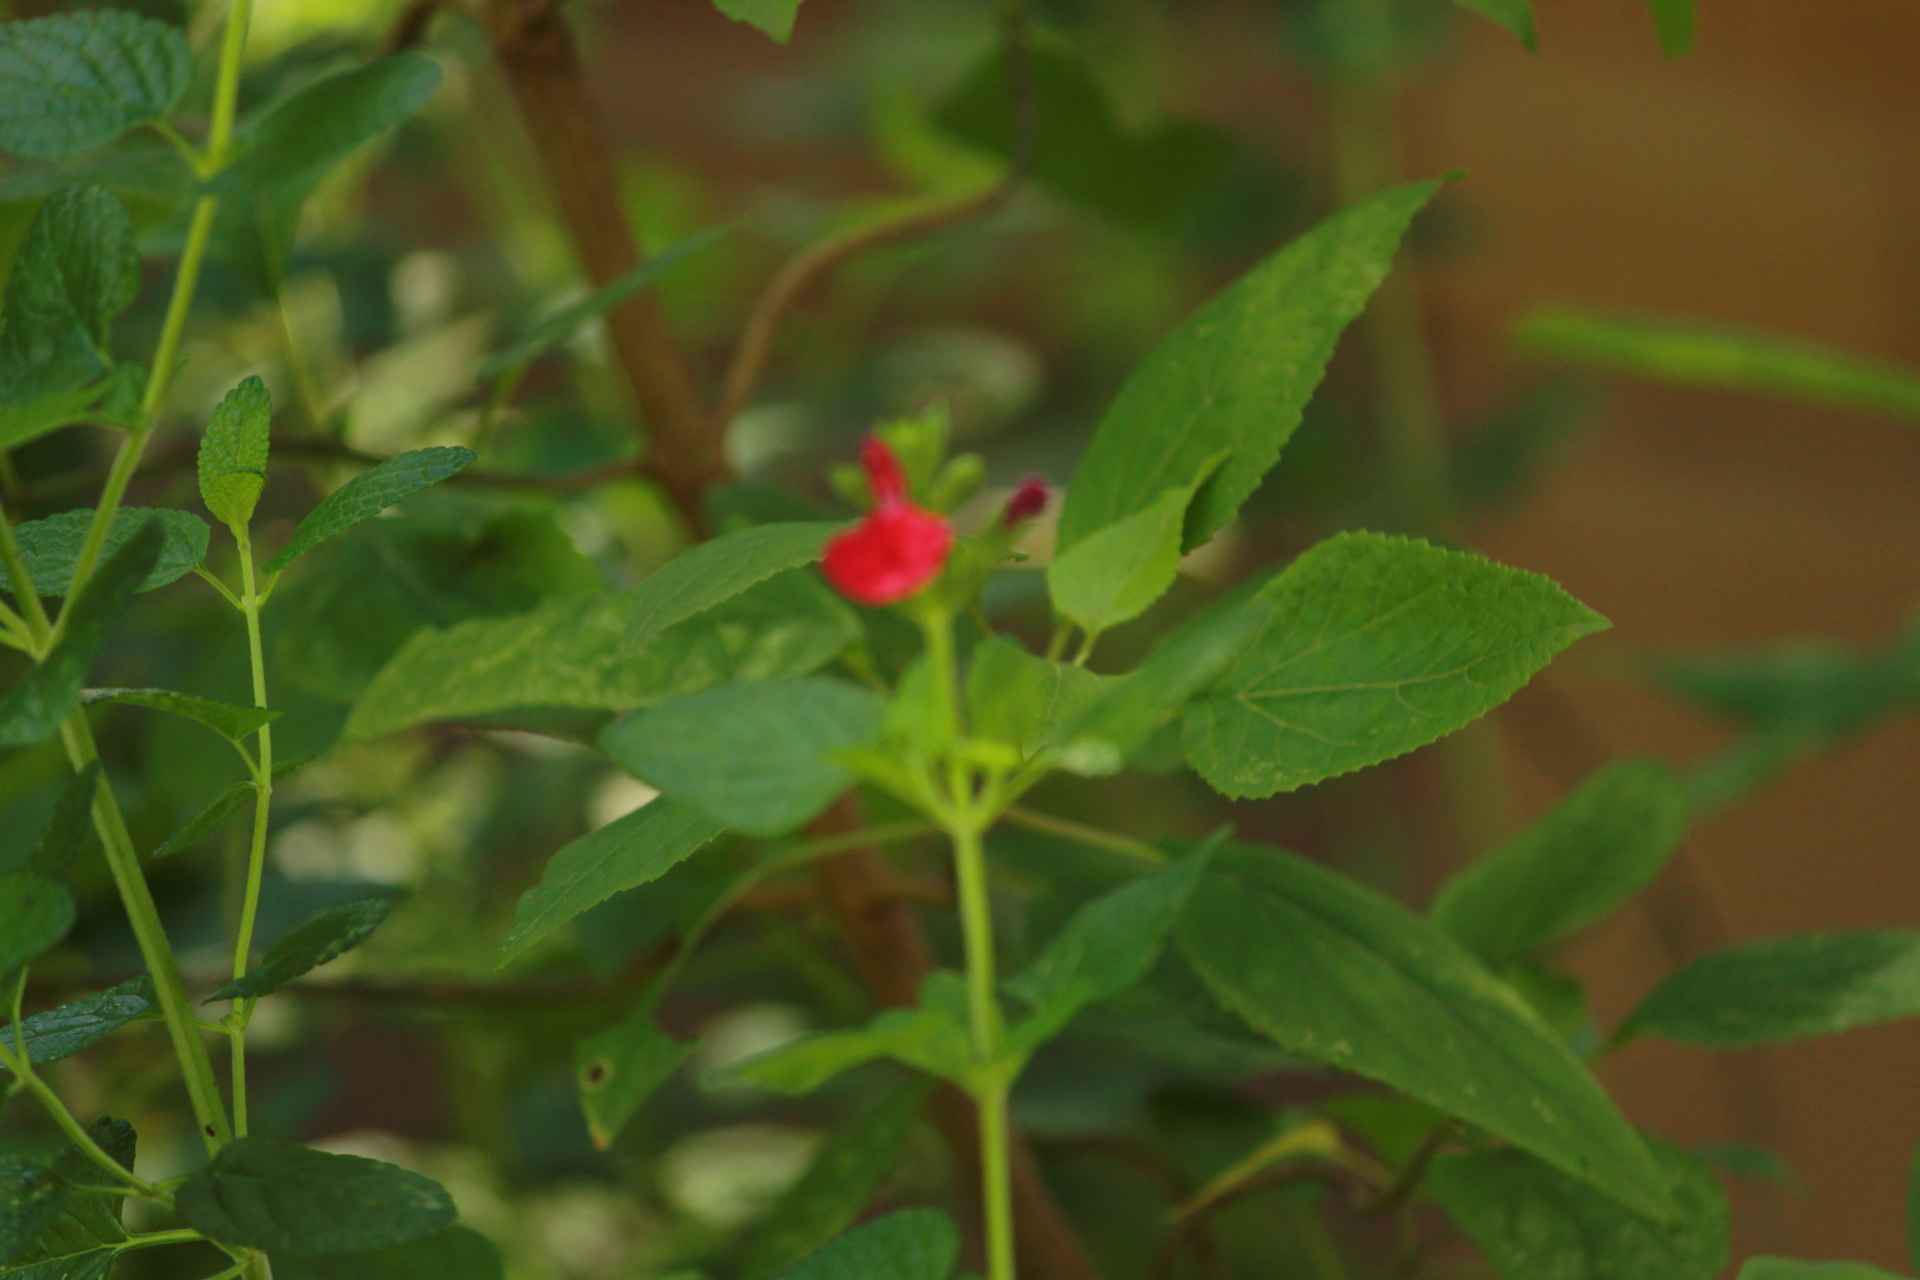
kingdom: Plantae
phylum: Tracheophyta
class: Magnoliopsida
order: Lamiales
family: Lamiaceae
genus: Salvia
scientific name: Salvia microphylla
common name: Baby sage
